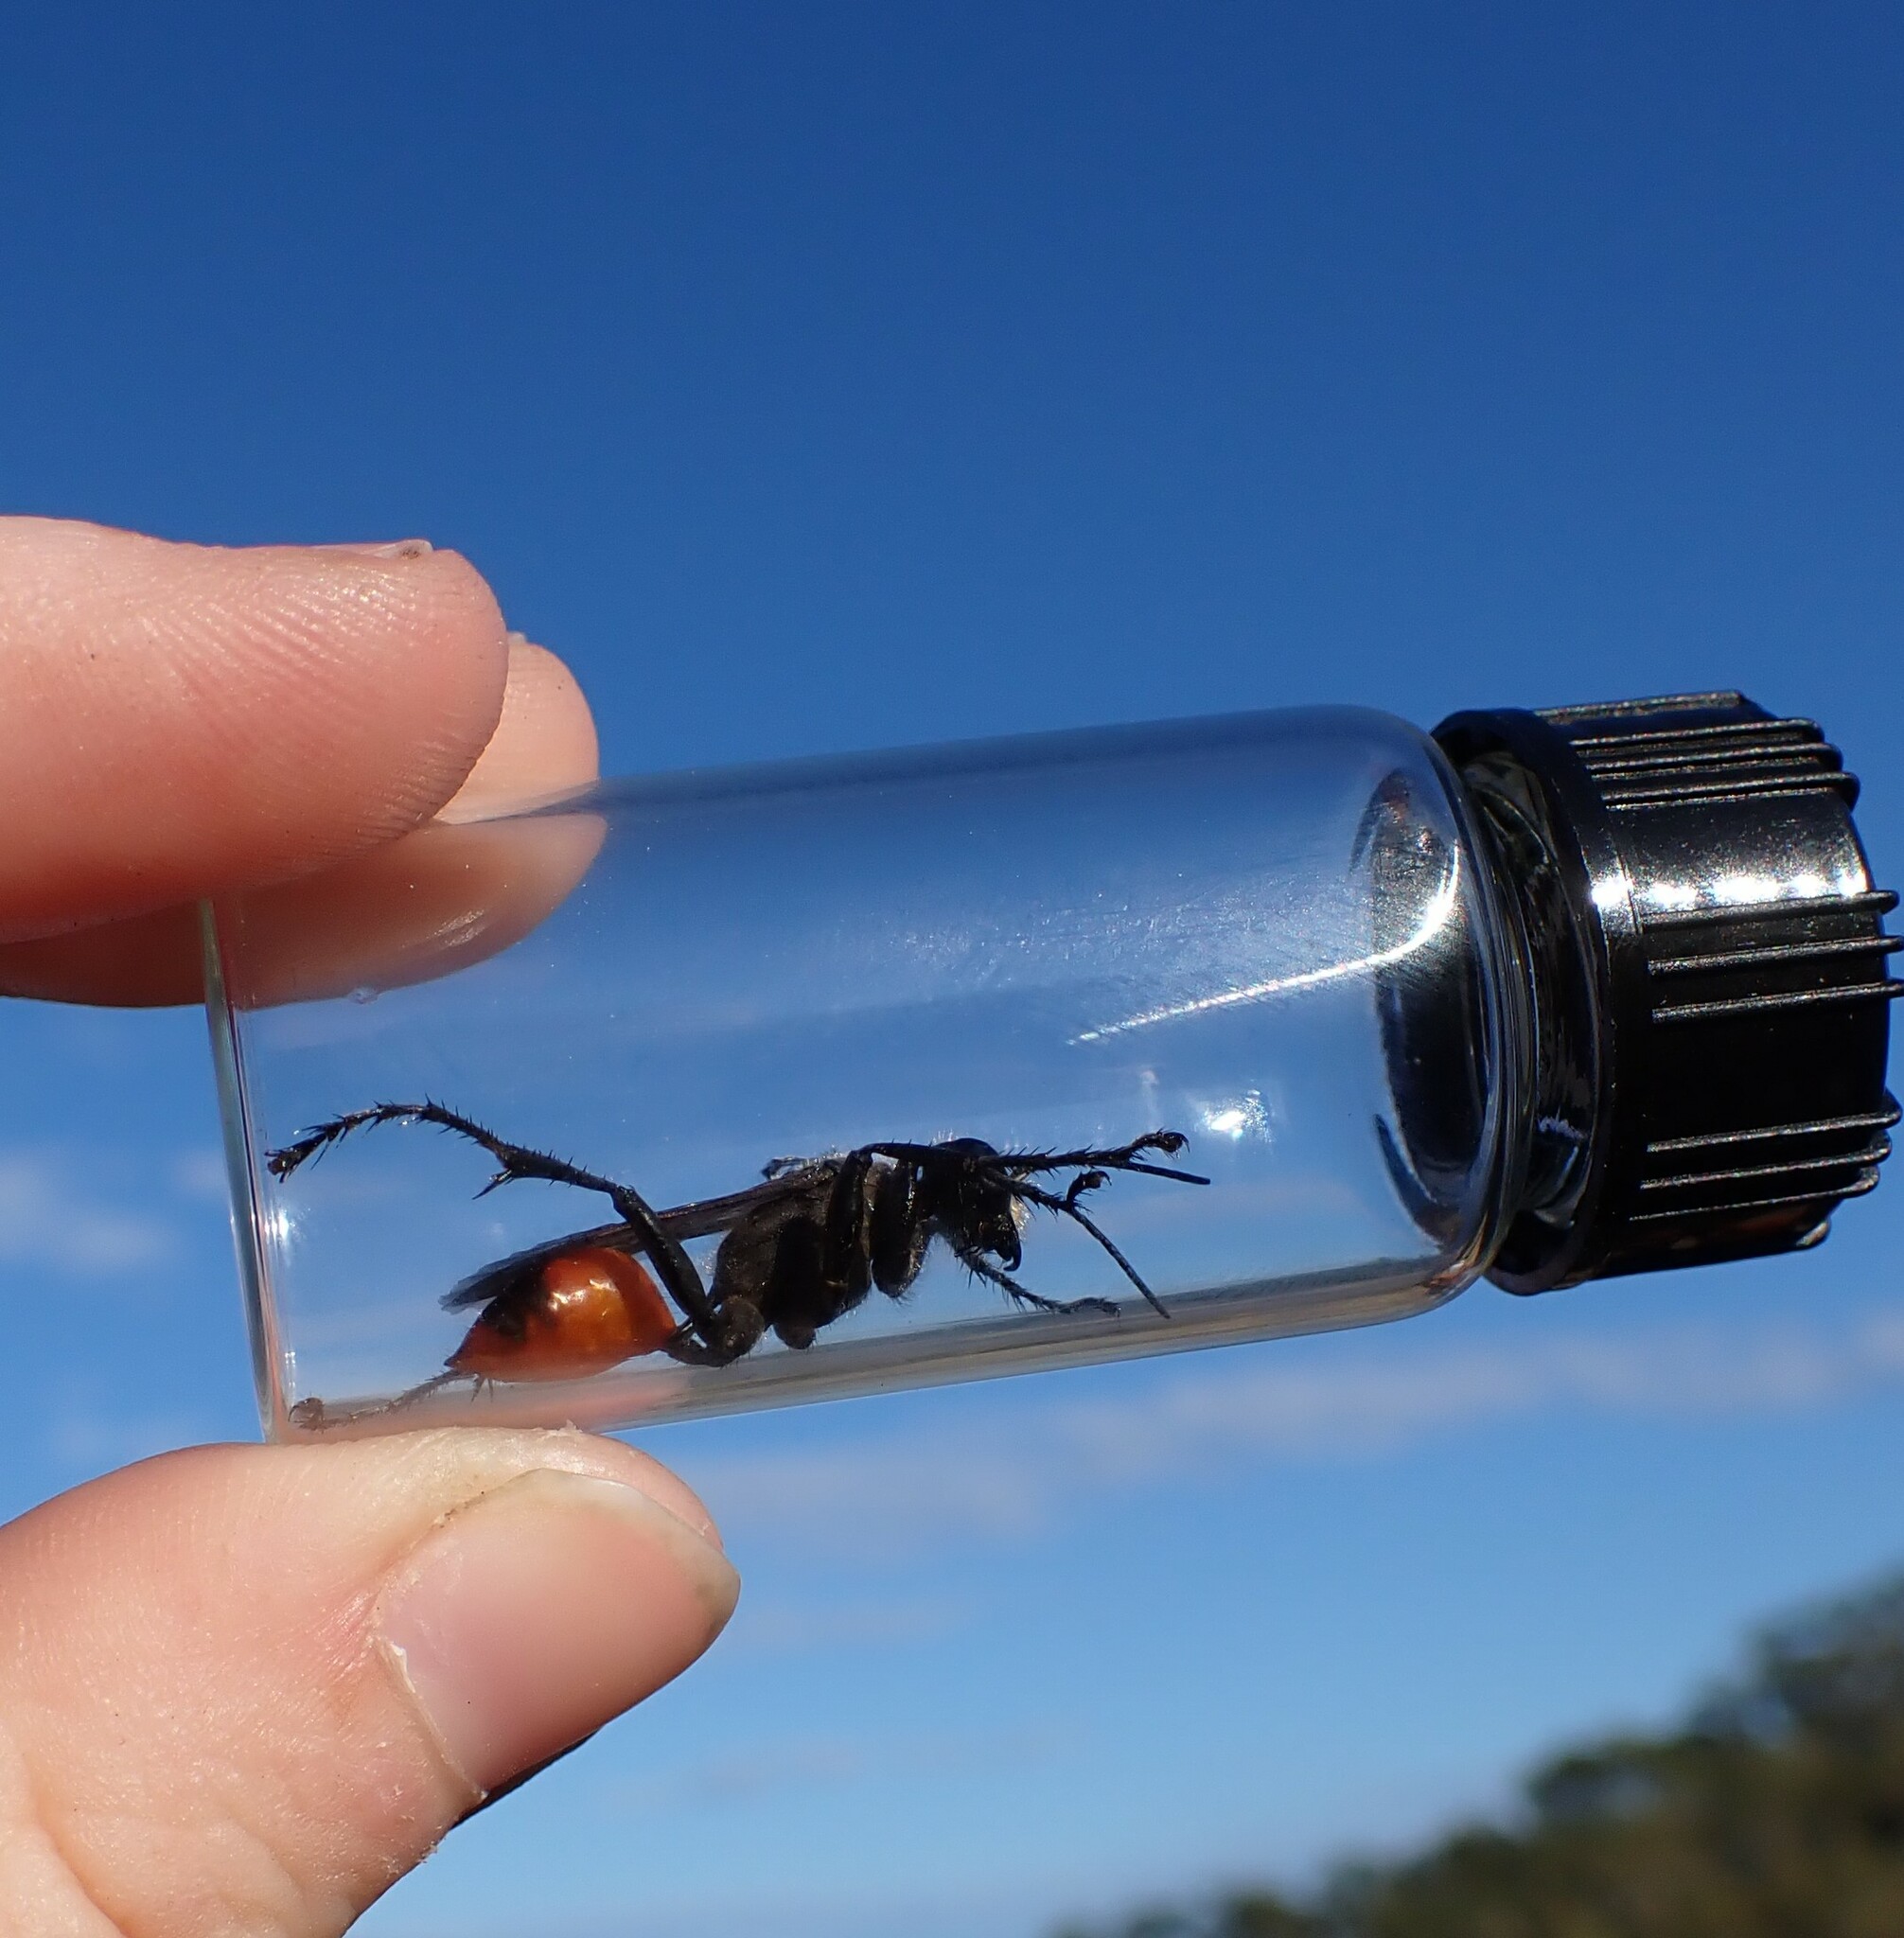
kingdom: Animalia
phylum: Arthropoda
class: Insecta
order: Hymenoptera
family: Sphecidae
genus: Prionyx
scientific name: Prionyx canadensis
